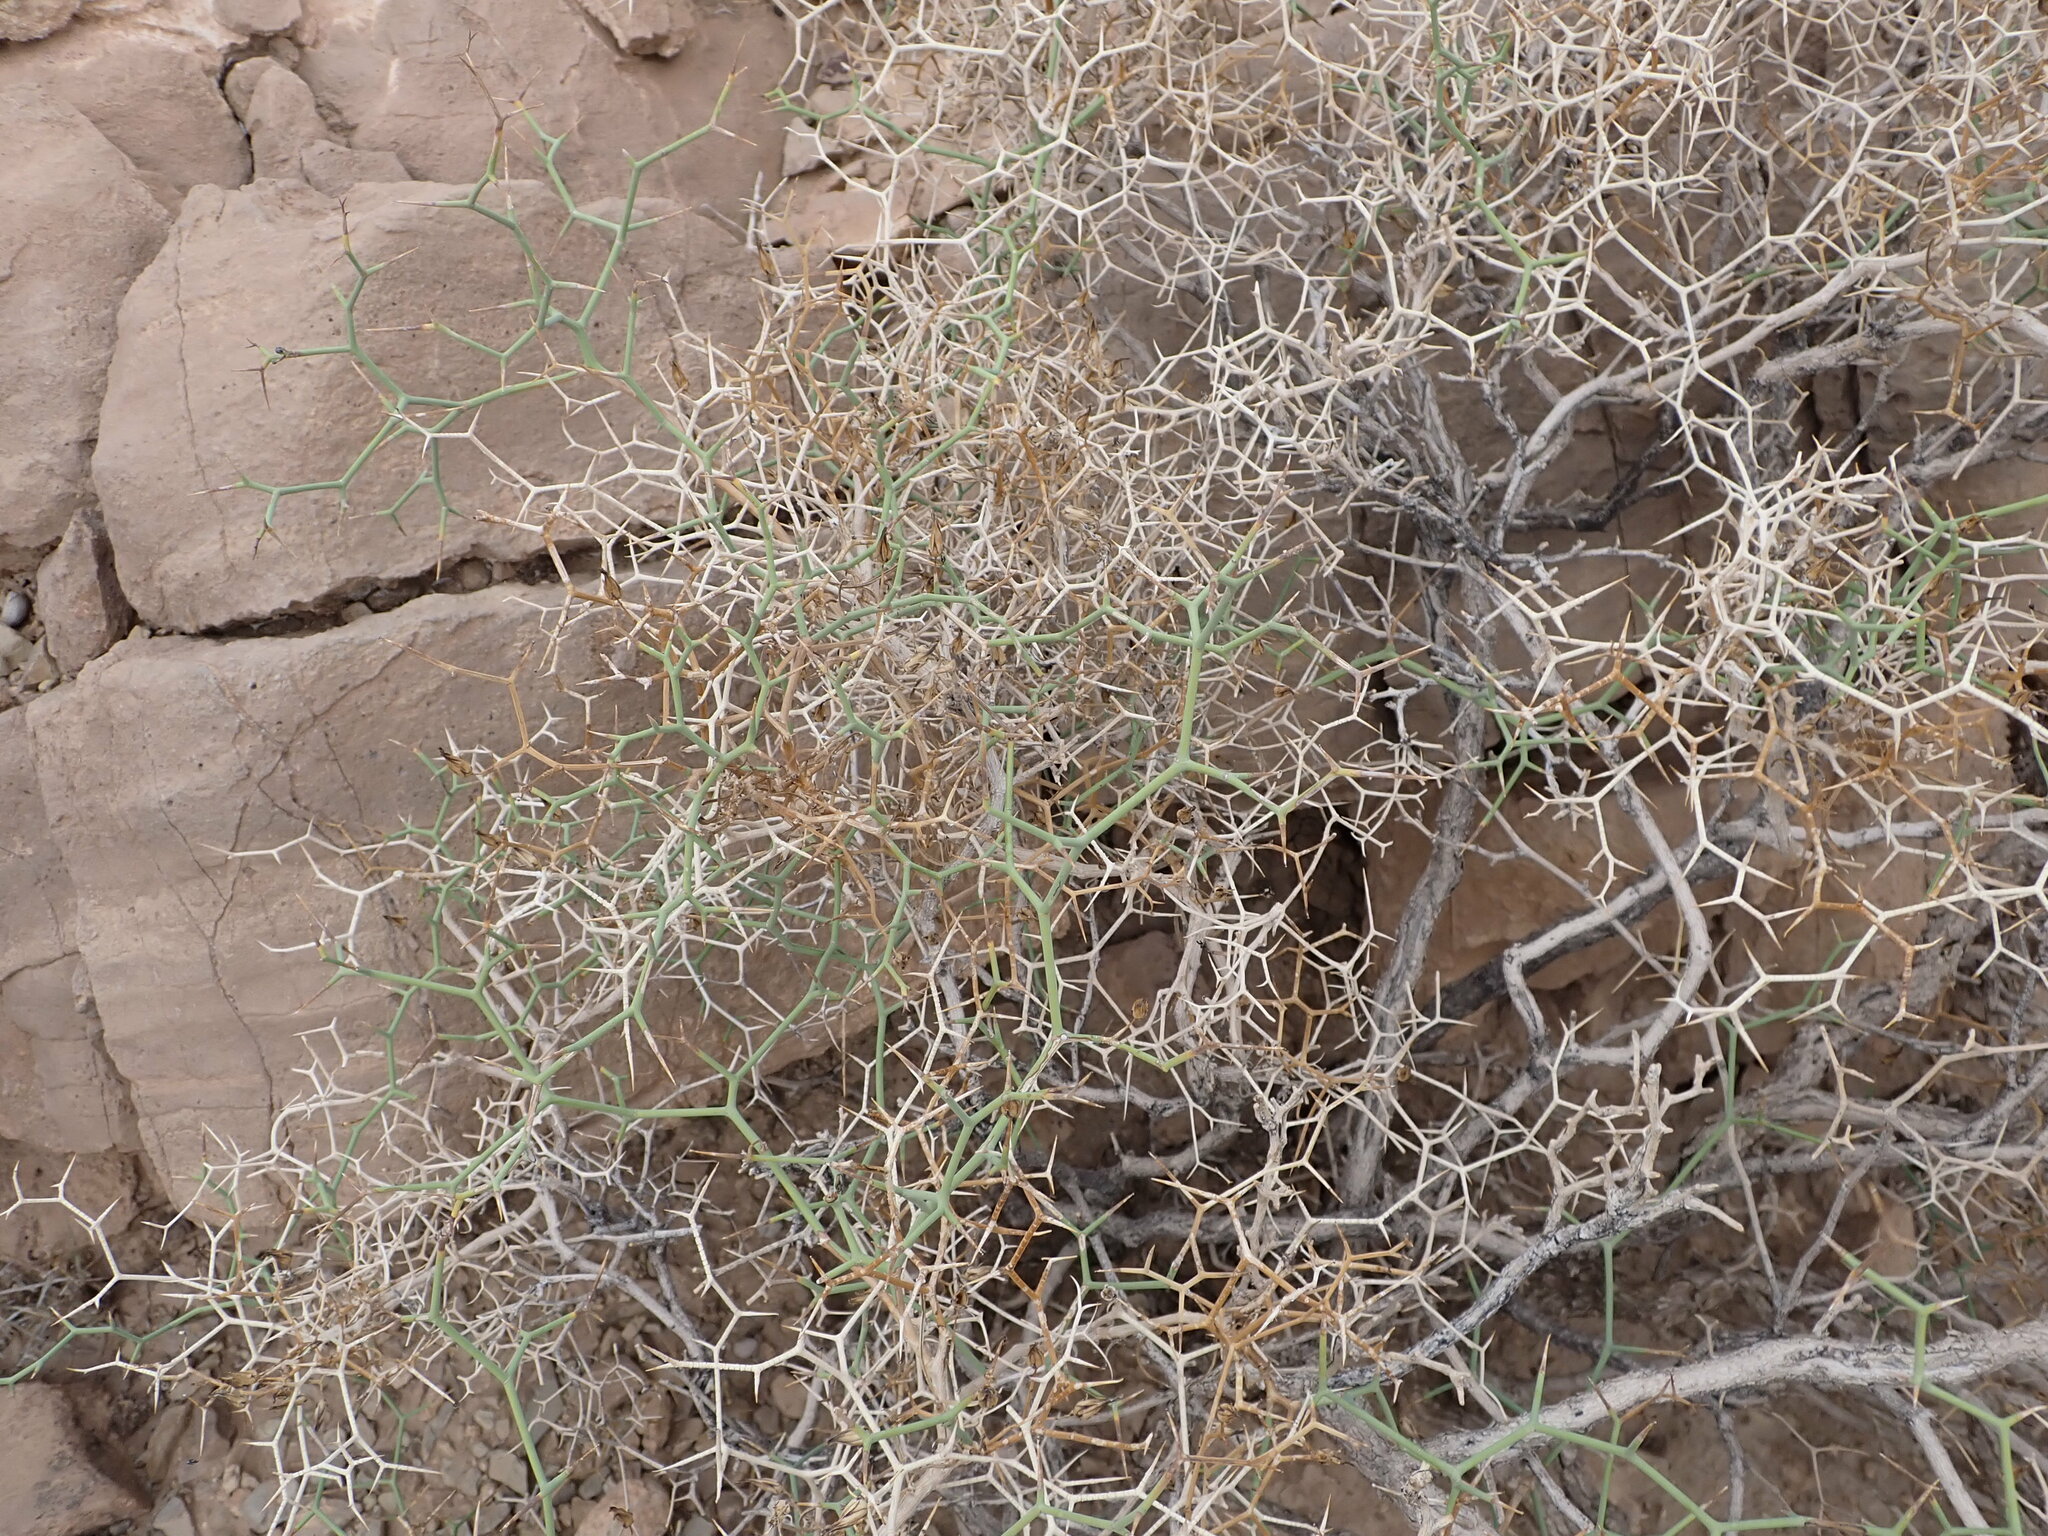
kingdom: Plantae
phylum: Tracheophyta
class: Magnoliopsida
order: Asterales
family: Asteraceae
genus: Launaea
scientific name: Launaea arborescens
